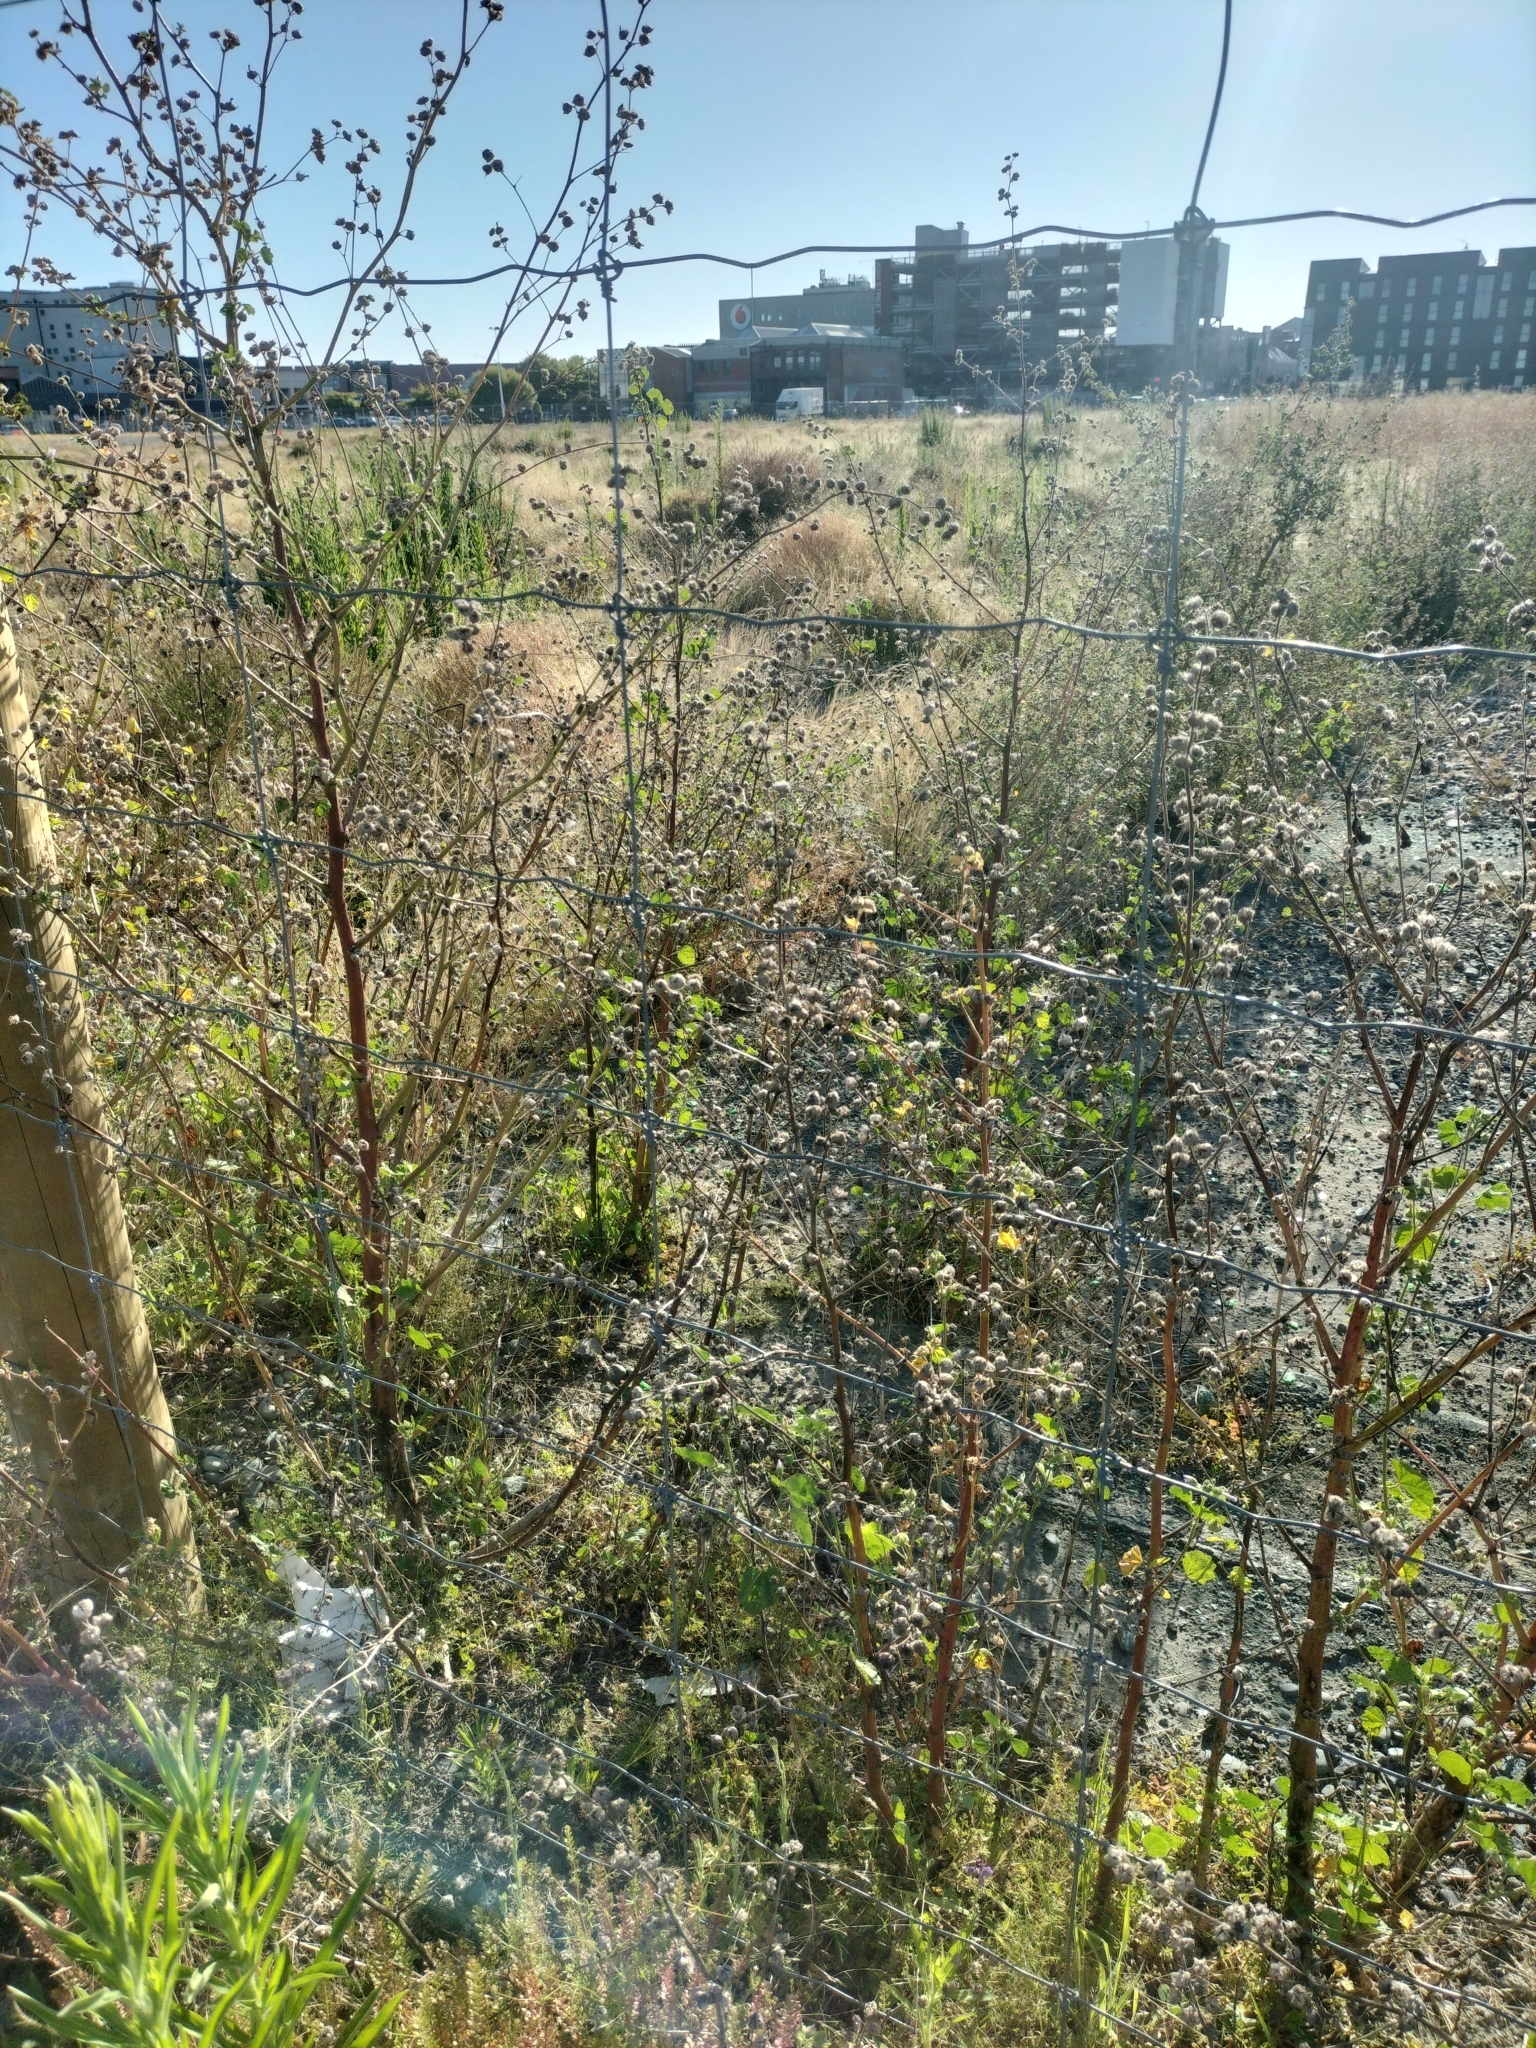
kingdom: Plantae
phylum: Tracheophyta
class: Magnoliopsida
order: Malvales
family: Malvaceae
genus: Malva
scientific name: Malva arborea
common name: Tree mallow
